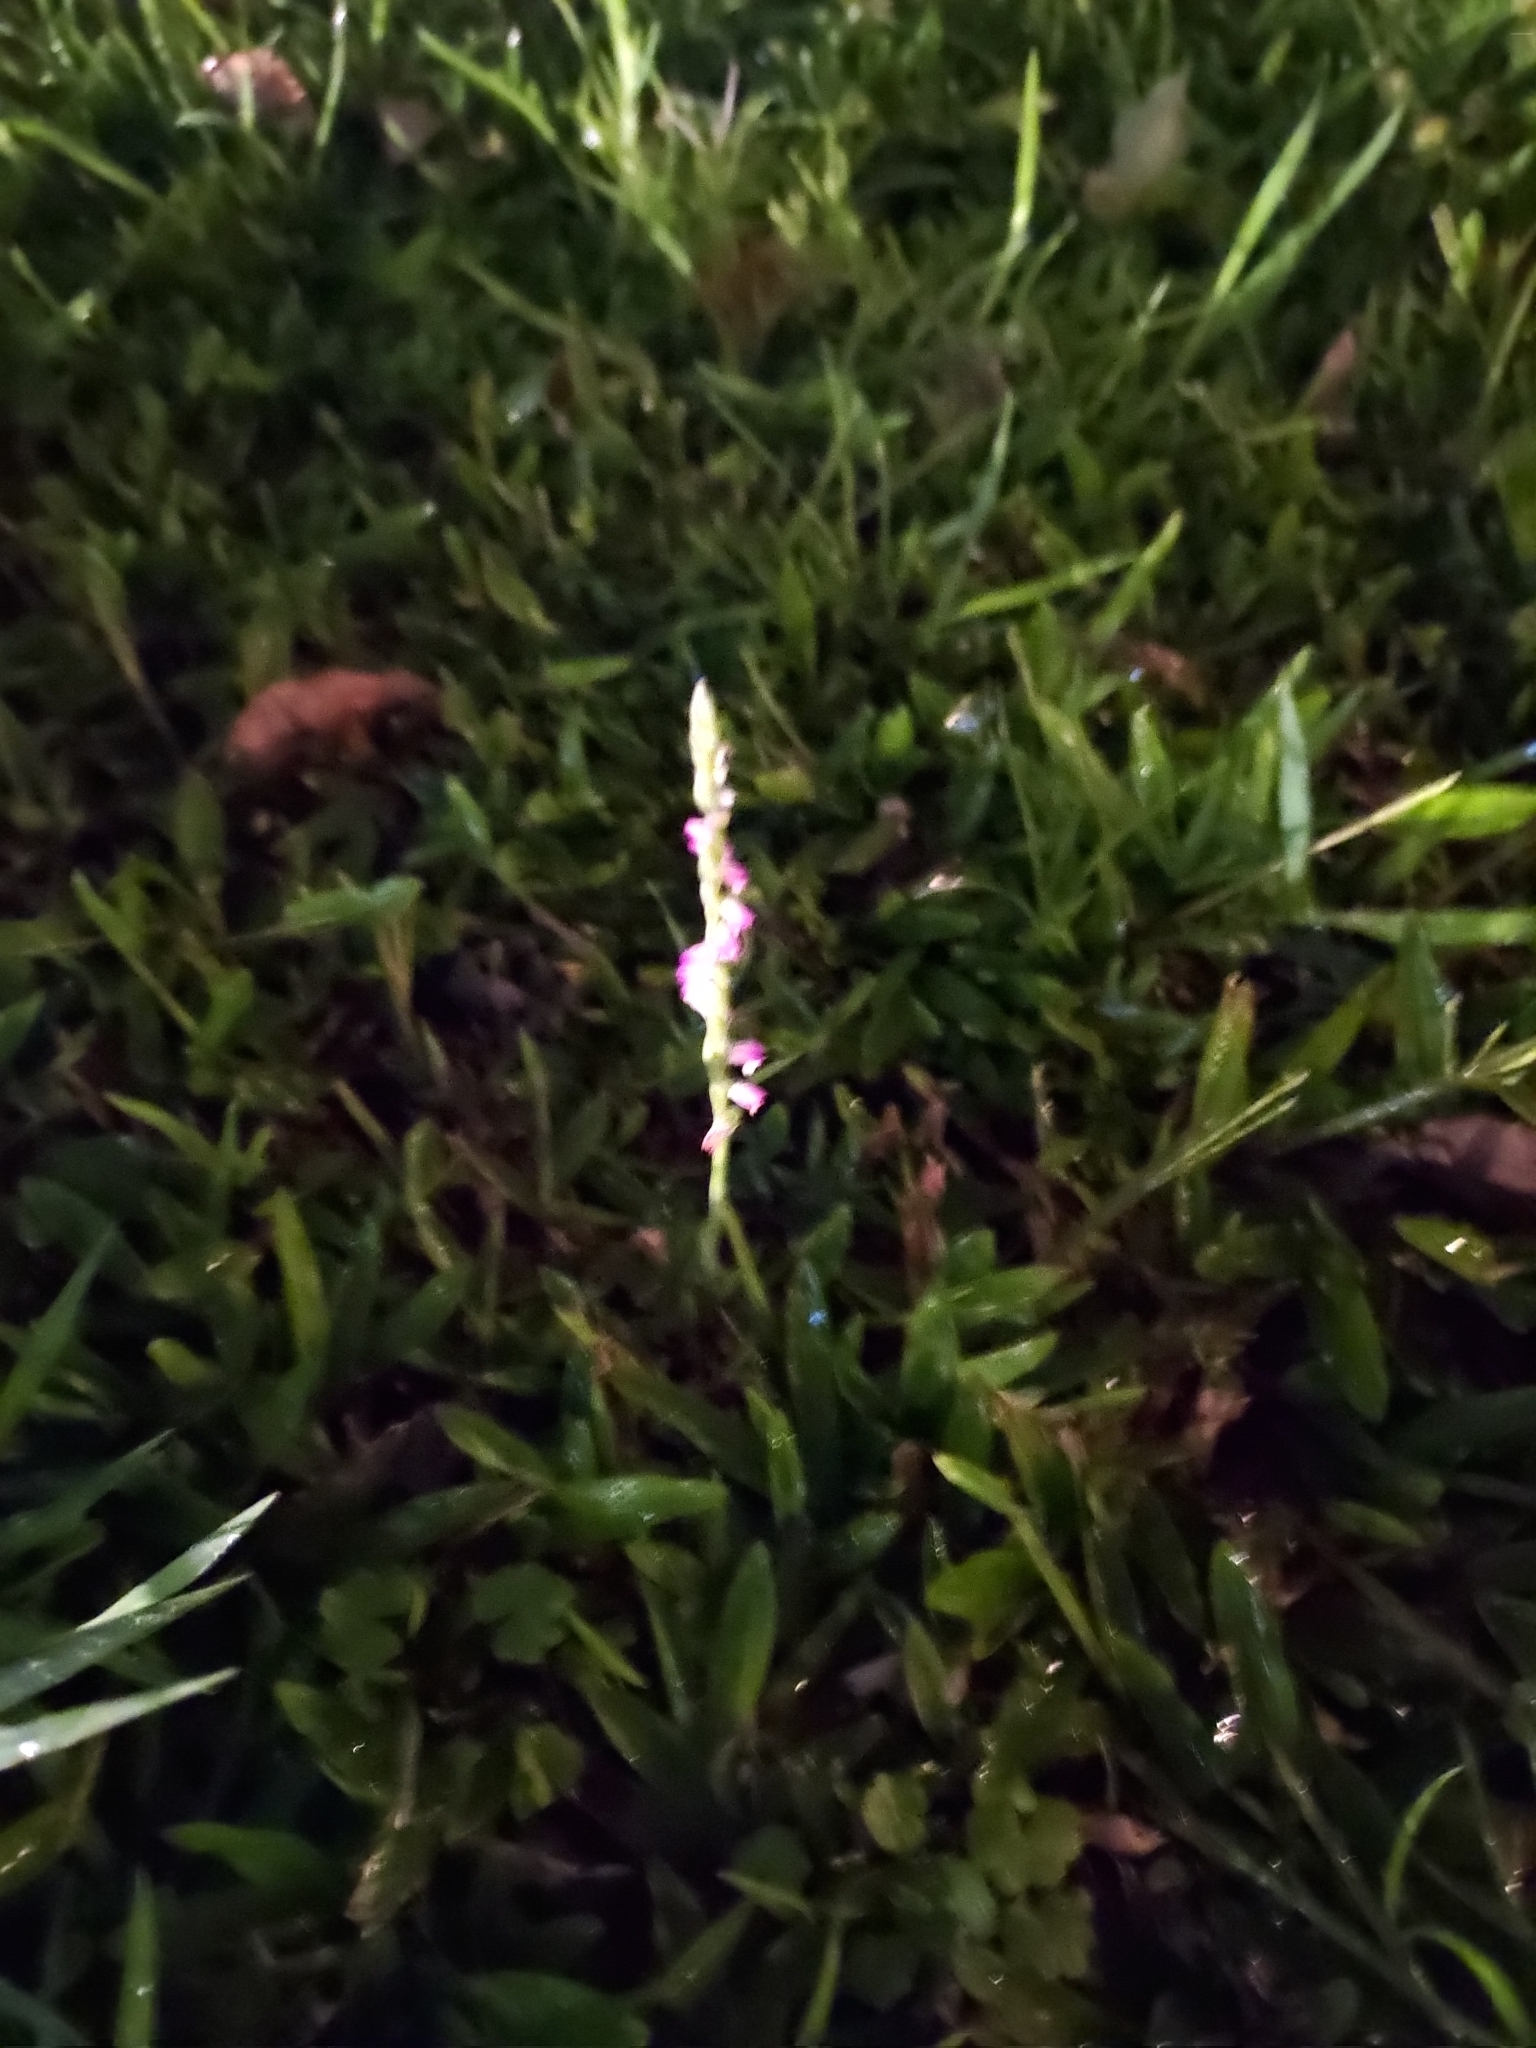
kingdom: Plantae
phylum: Tracheophyta
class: Liliopsida
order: Asparagales
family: Orchidaceae
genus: Spiranthes
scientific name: Spiranthes sinensis
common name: Chinese spiranthes
